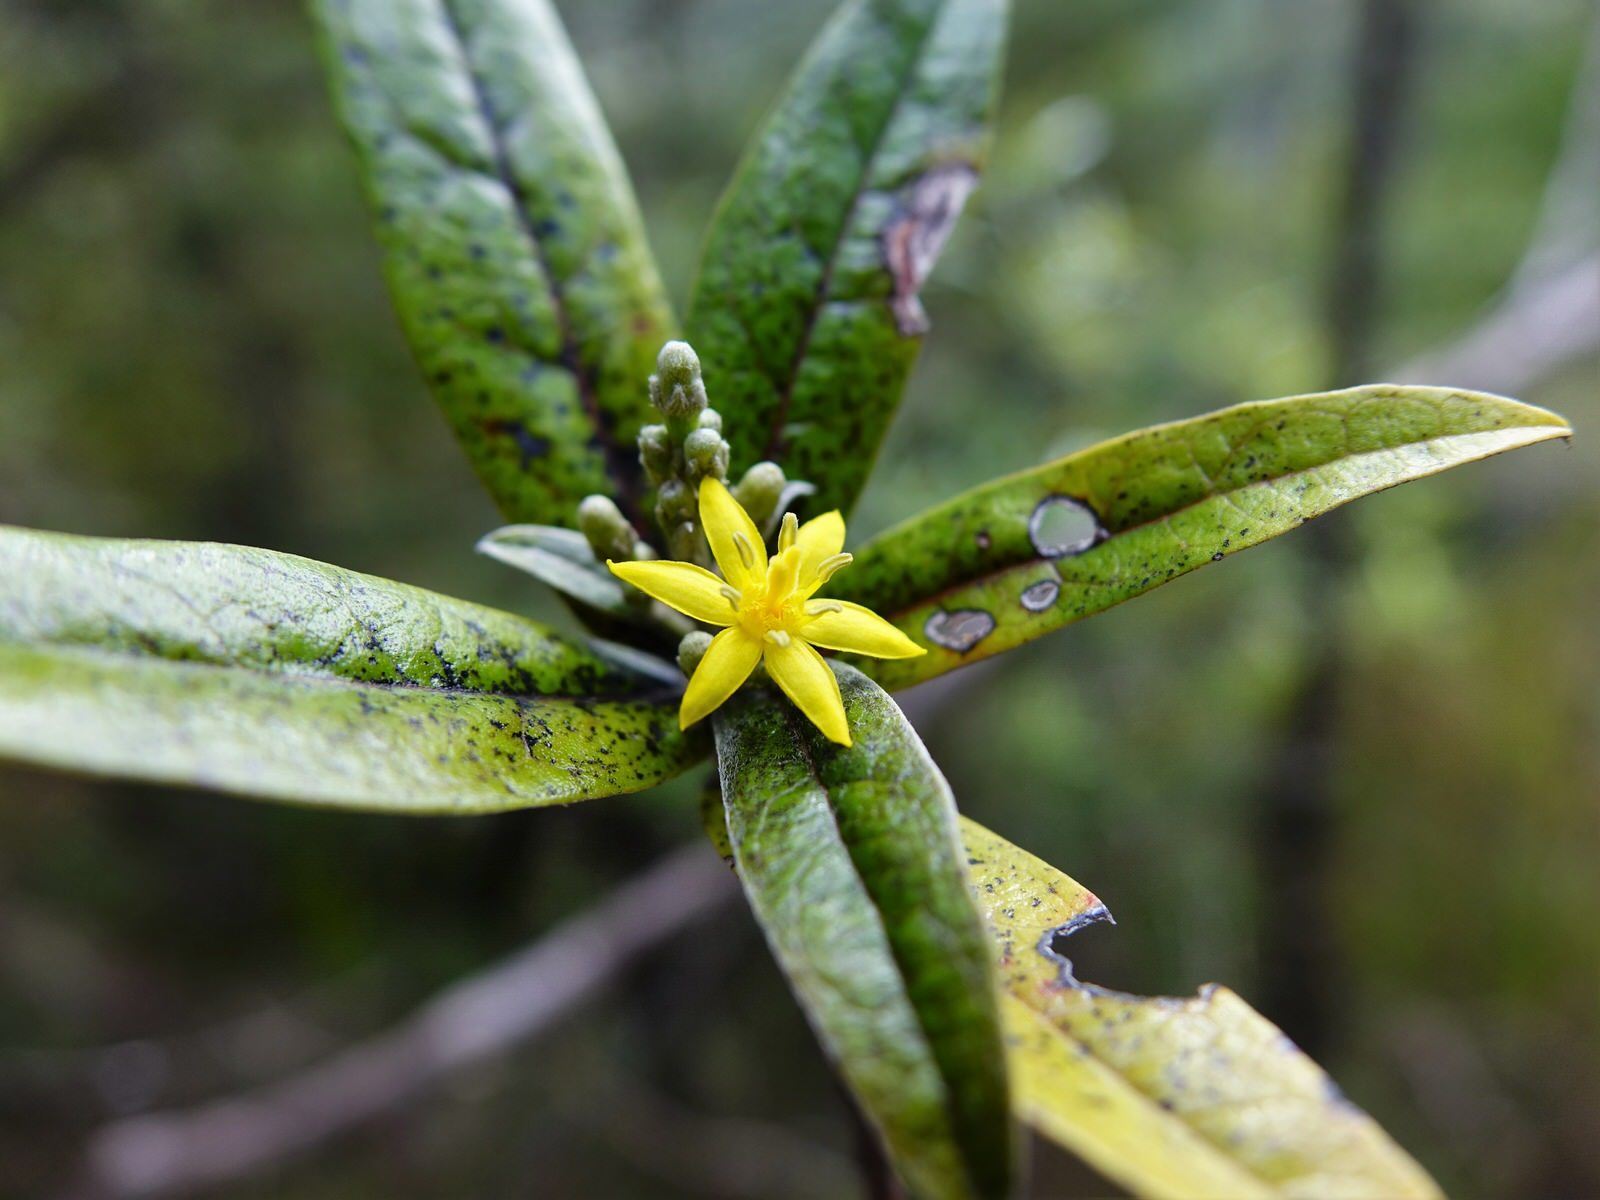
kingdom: Plantae
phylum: Tracheophyta
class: Magnoliopsida
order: Asterales
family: Argophyllaceae
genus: Corokia
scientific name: Corokia buddleioides
